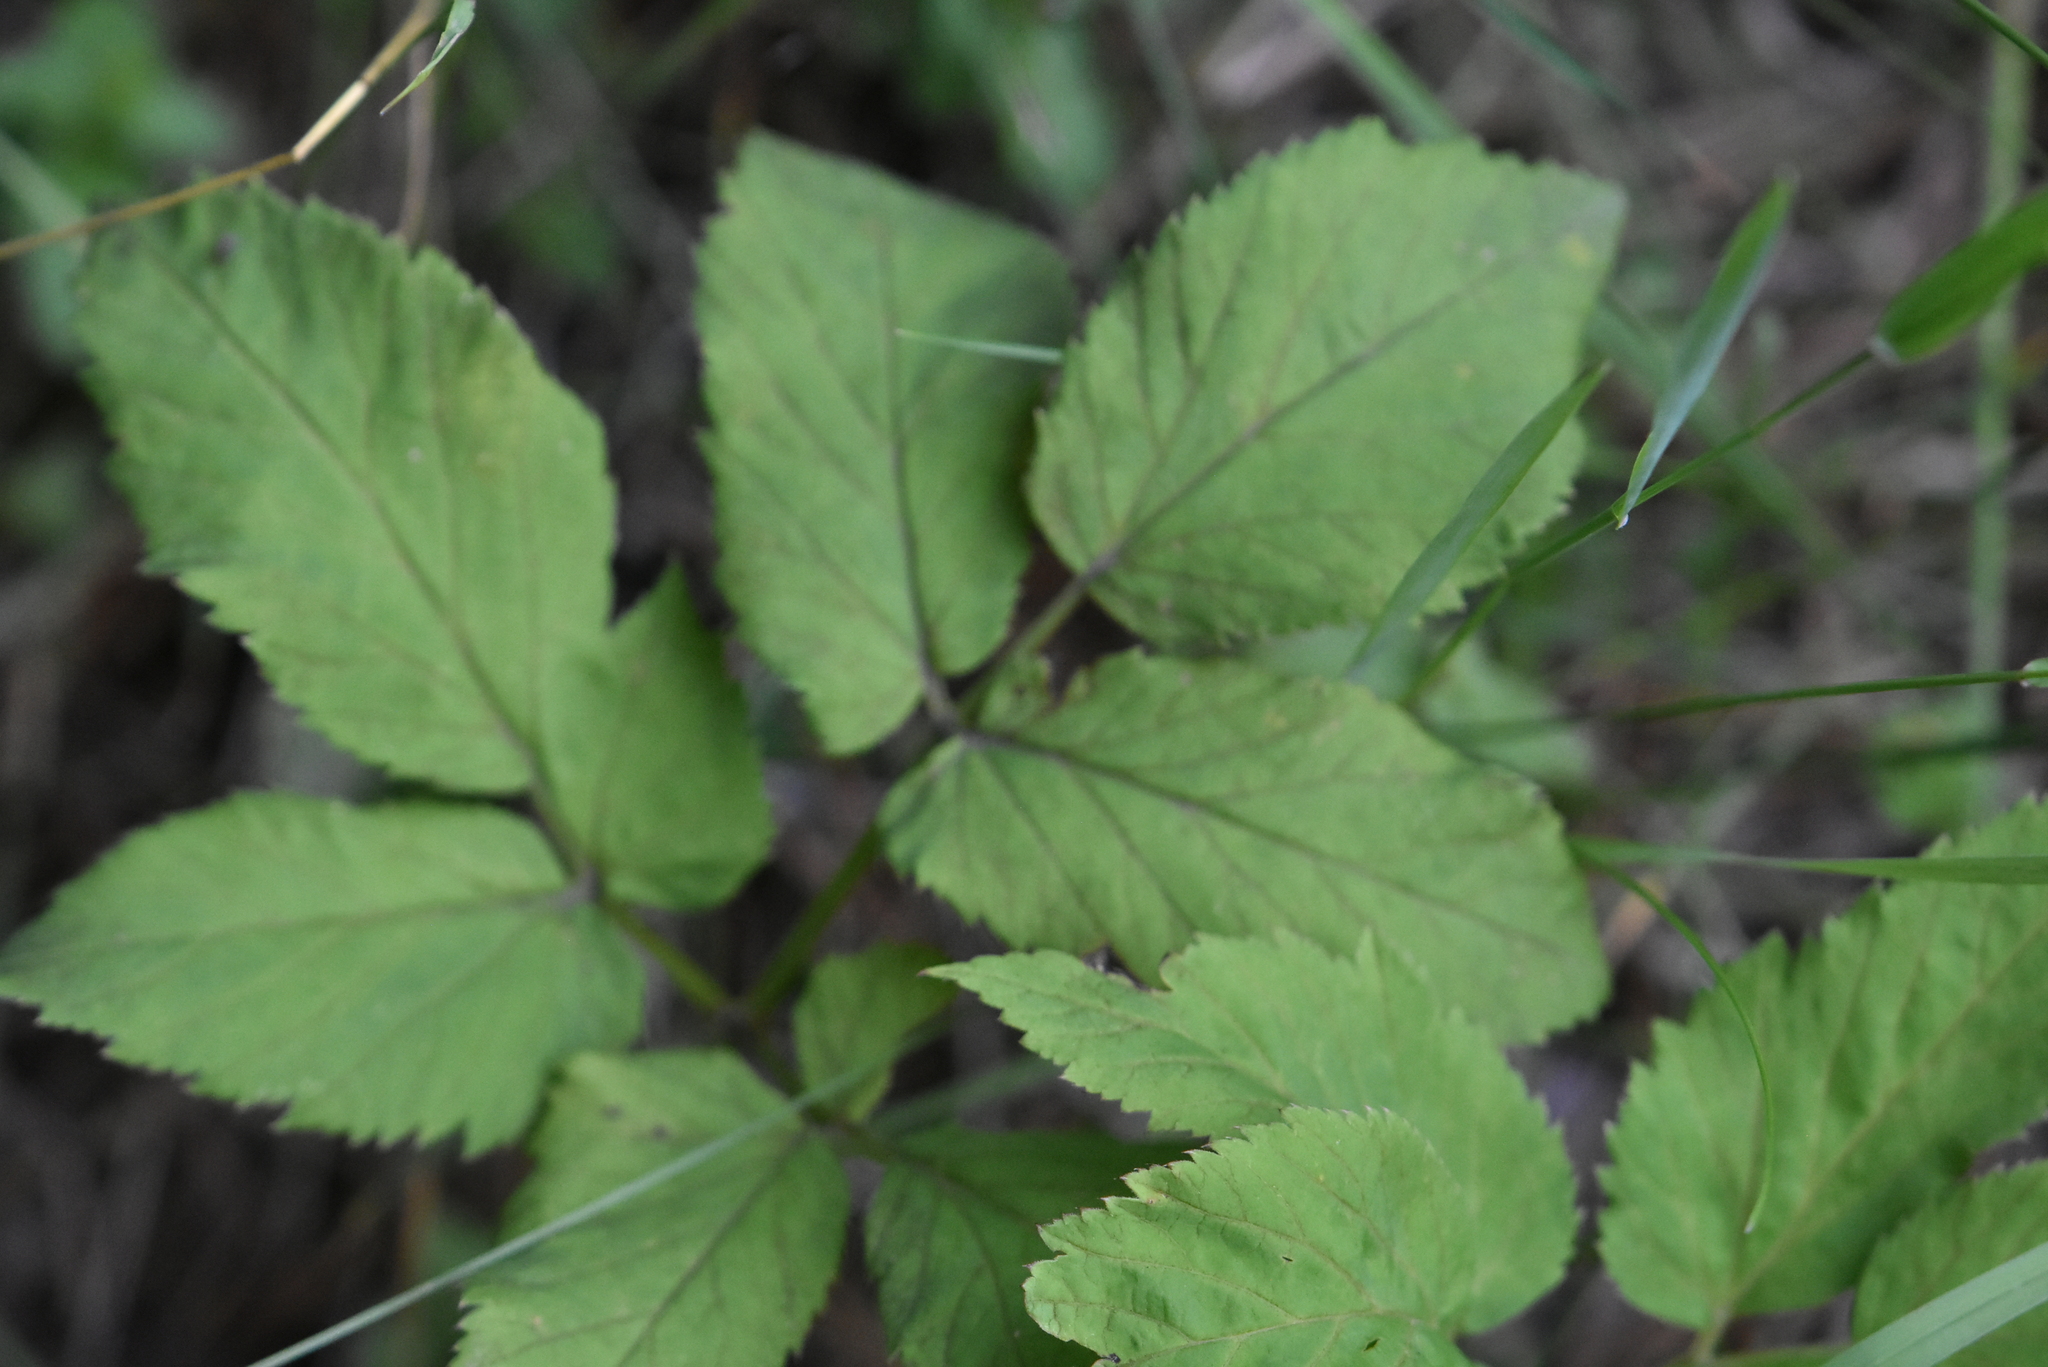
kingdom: Plantae
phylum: Tracheophyta
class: Magnoliopsida
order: Apiales
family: Apiaceae
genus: Aegopodium
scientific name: Aegopodium podagraria
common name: Ground-elder
